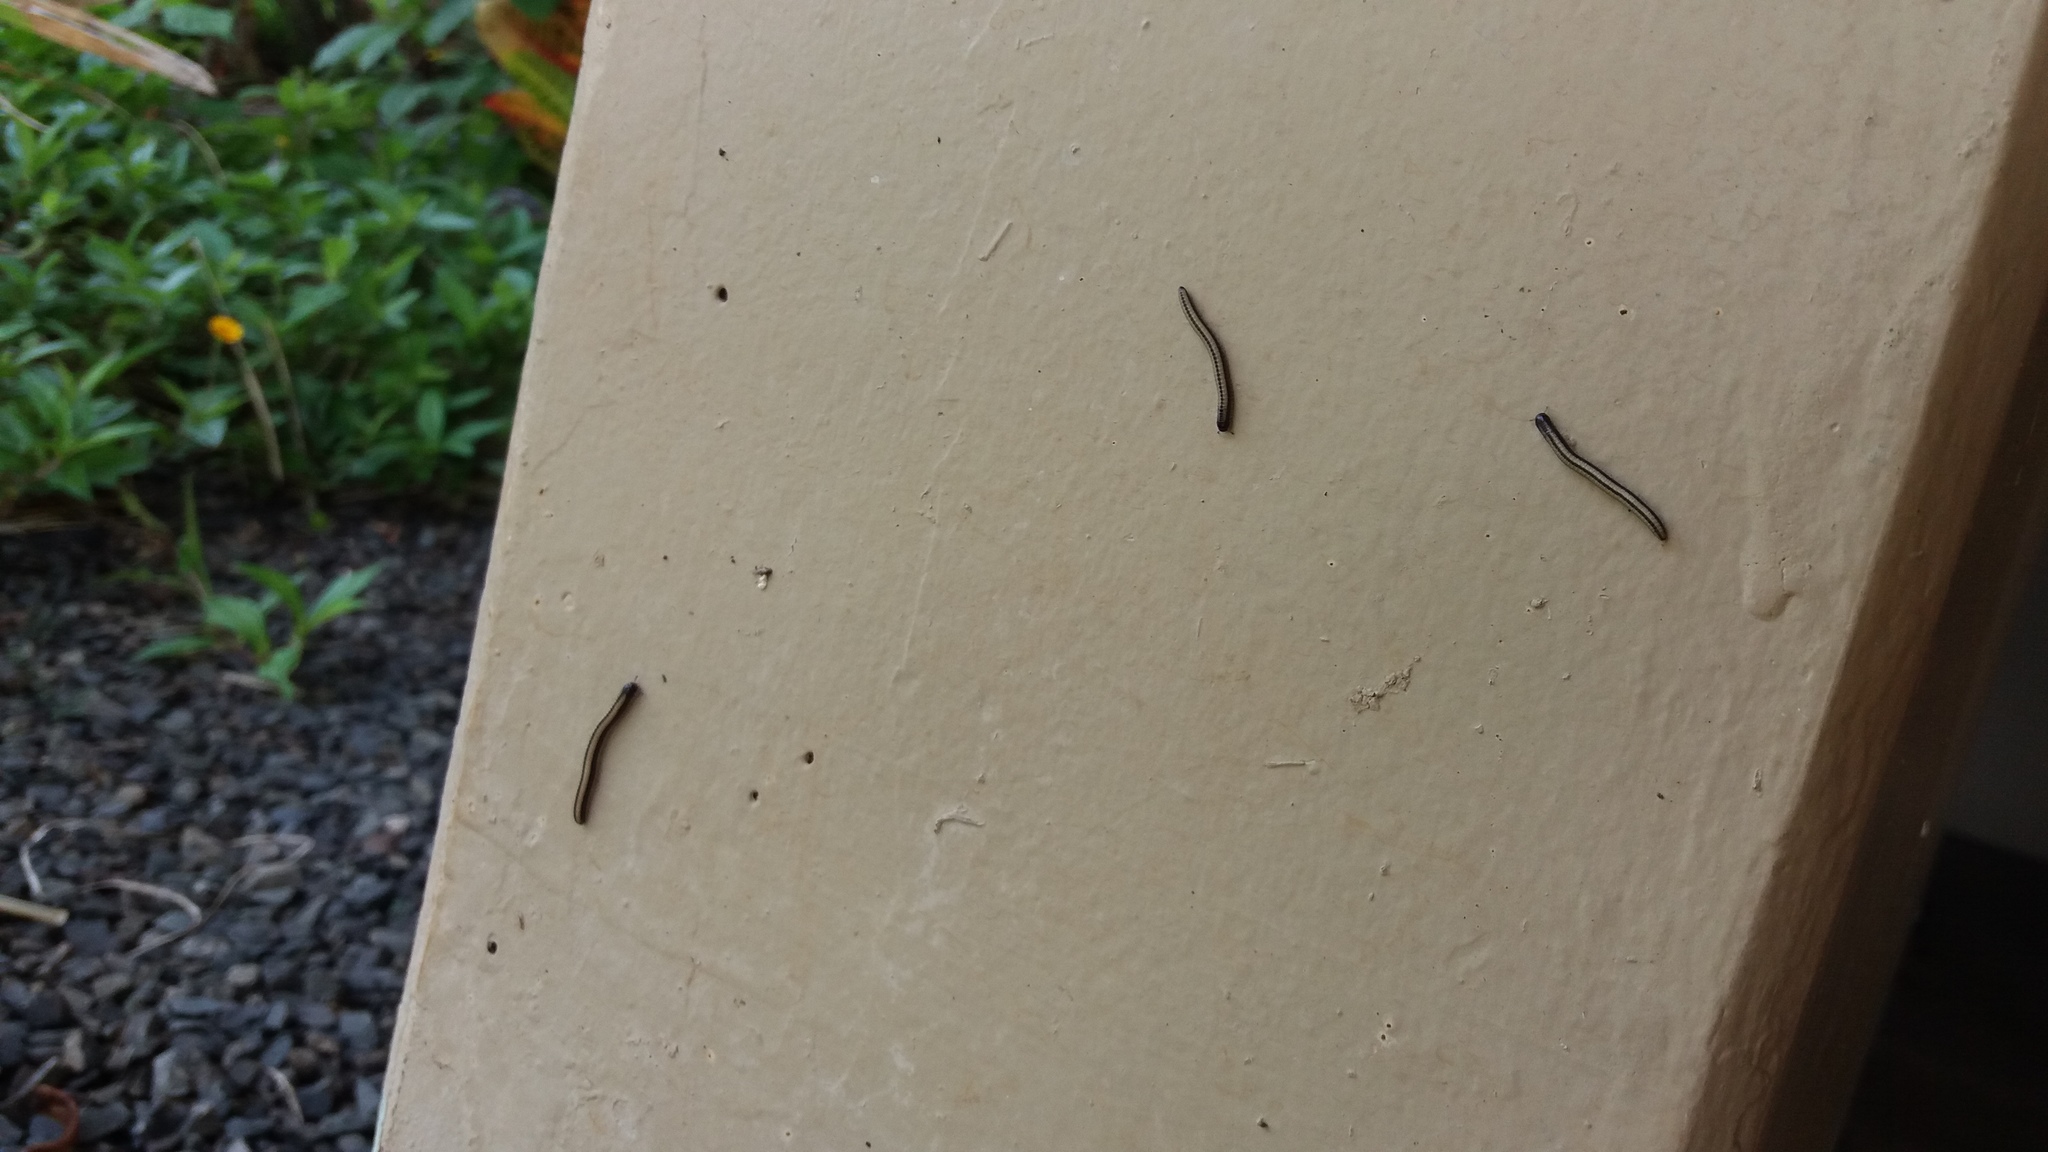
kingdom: Animalia
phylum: Arthropoda
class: Diplopoda
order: Spirobolida
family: Spirobolellidae
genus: Spirobolellus
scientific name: Spirobolellus immigrans
